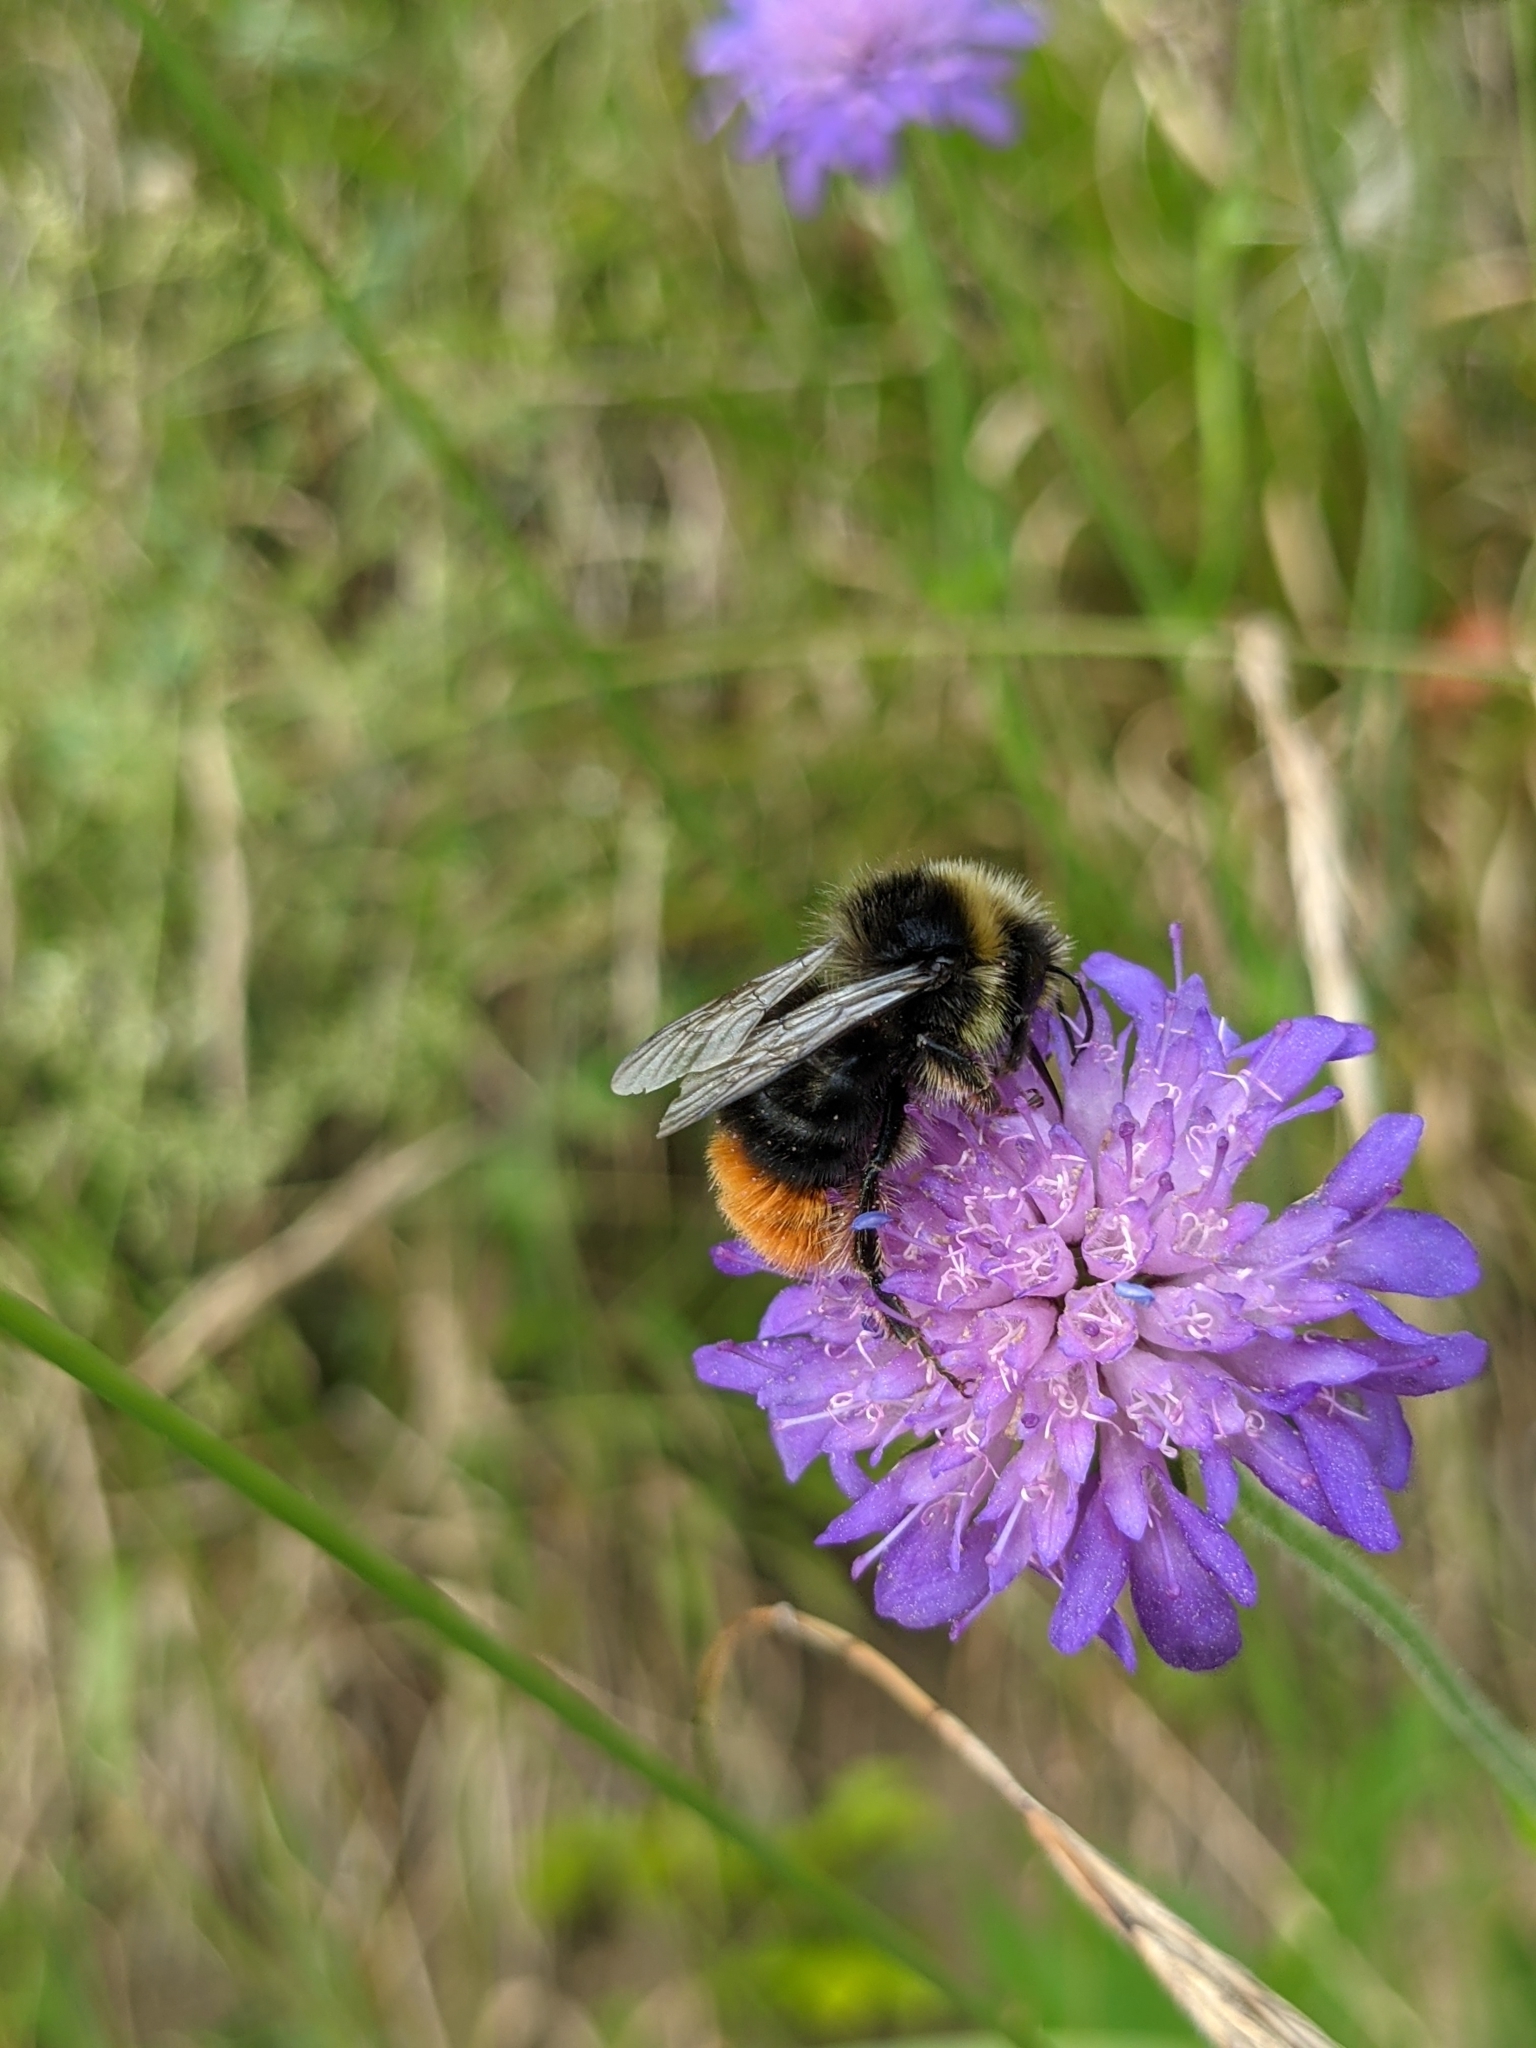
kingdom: Animalia
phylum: Arthropoda
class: Insecta
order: Hymenoptera
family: Apidae
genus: Bombus
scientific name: Bombus lapidarius
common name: Large red-tailed humble-bee
